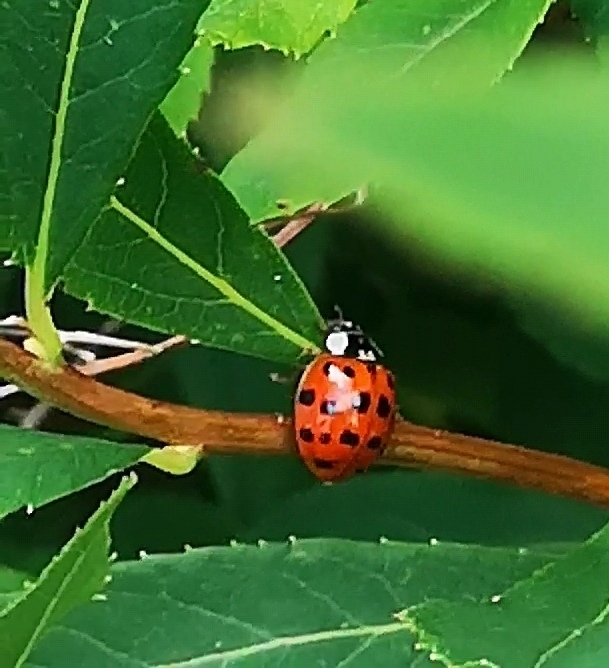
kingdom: Animalia
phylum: Arthropoda
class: Insecta
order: Coleoptera
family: Coccinellidae
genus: Harmonia
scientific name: Harmonia axyridis
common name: Harlequin ladybird
